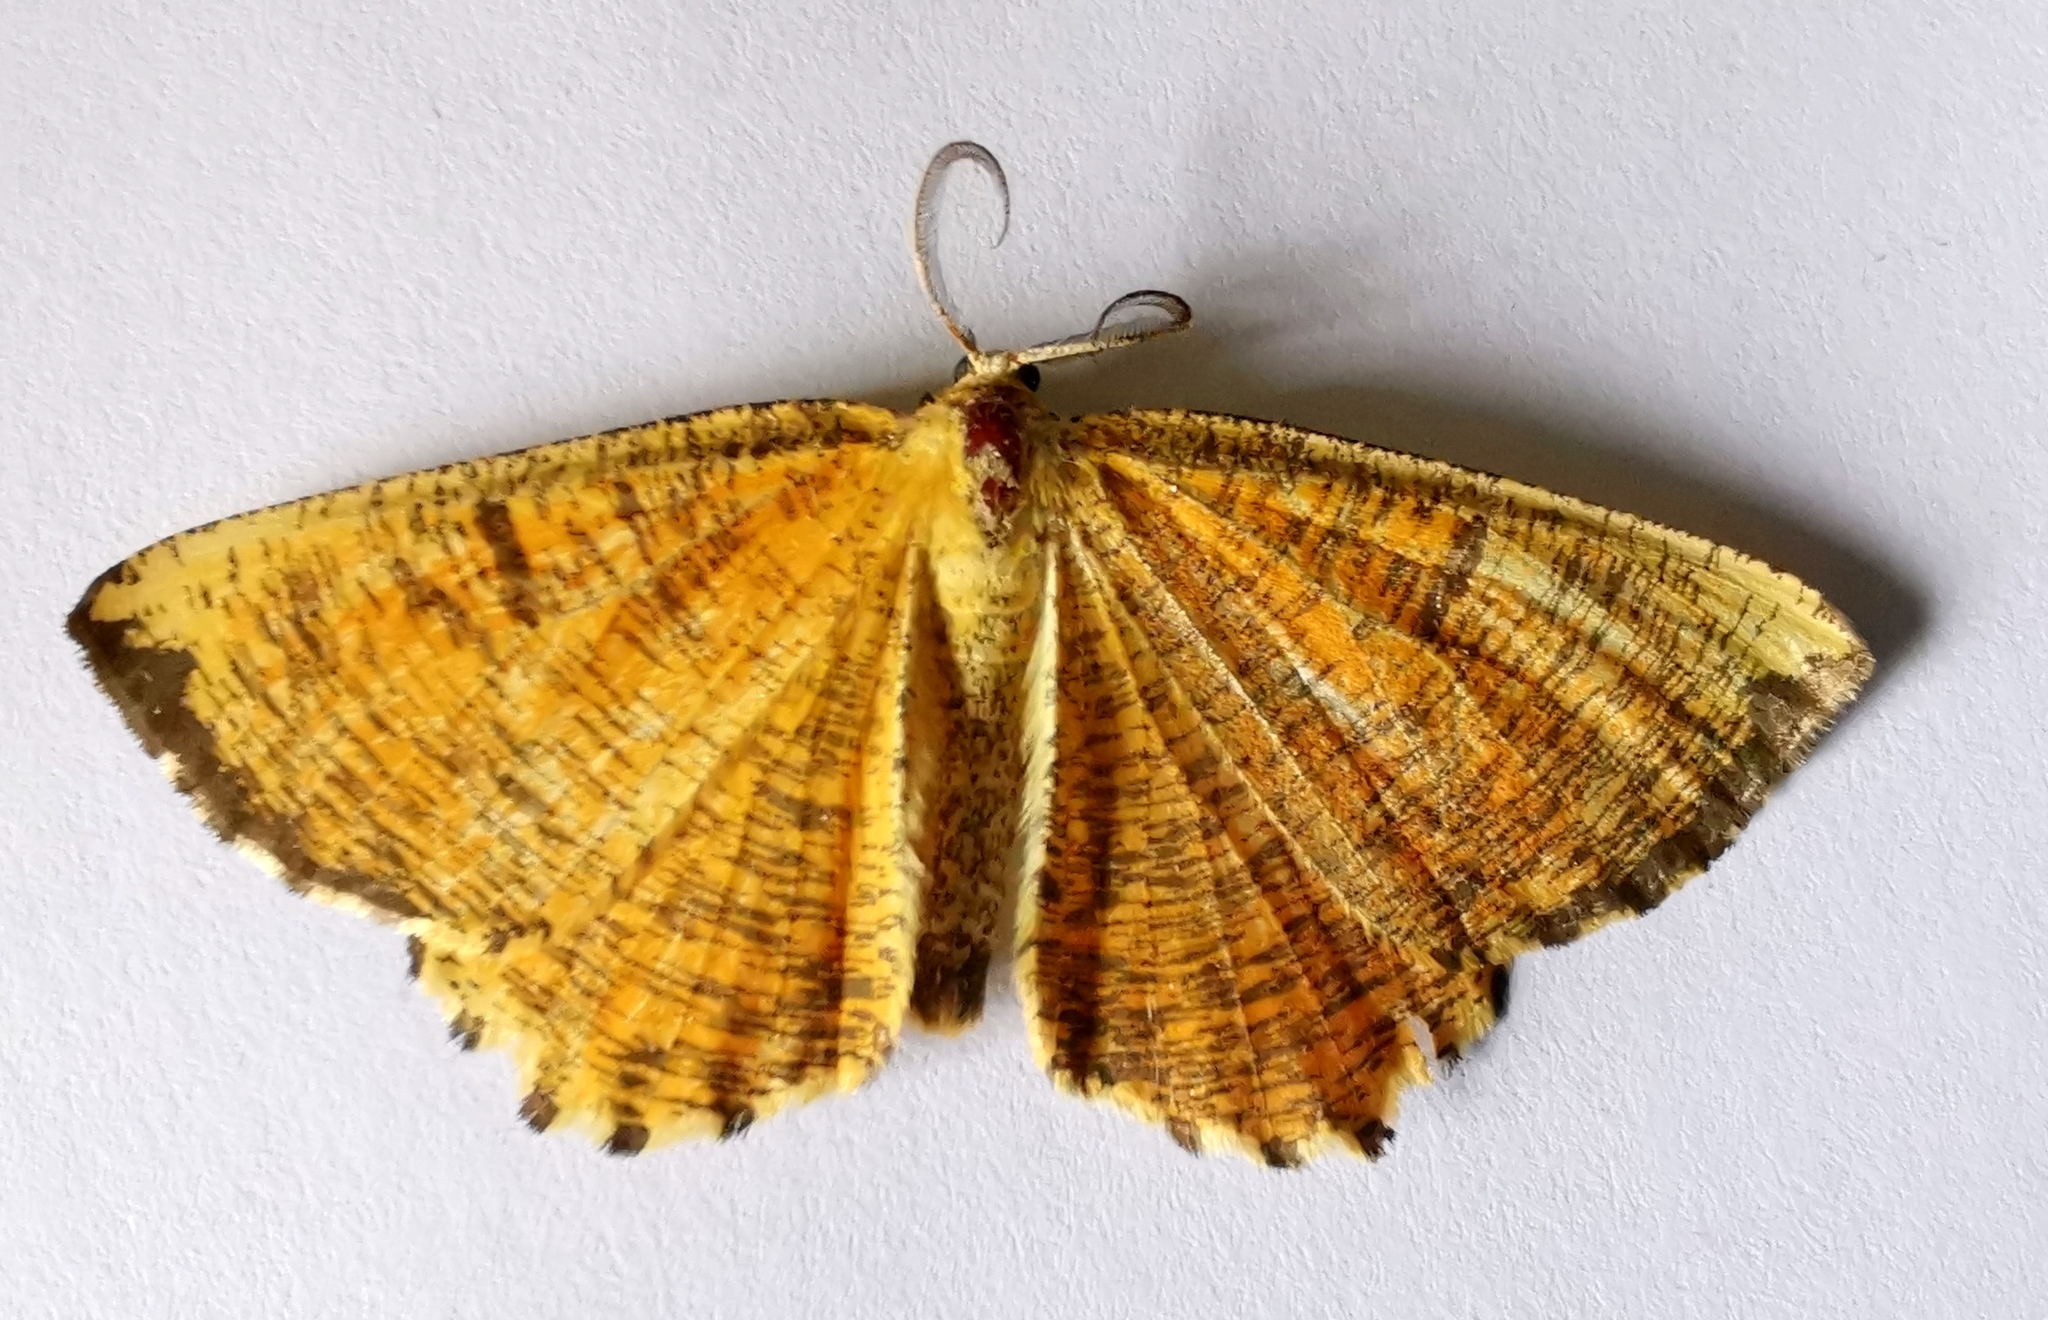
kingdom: Animalia
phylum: Arthropoda
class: Insecta
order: Lepidoptera
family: Geometridae
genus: Angerona
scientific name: Angerona prunaria
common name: Orange moth
